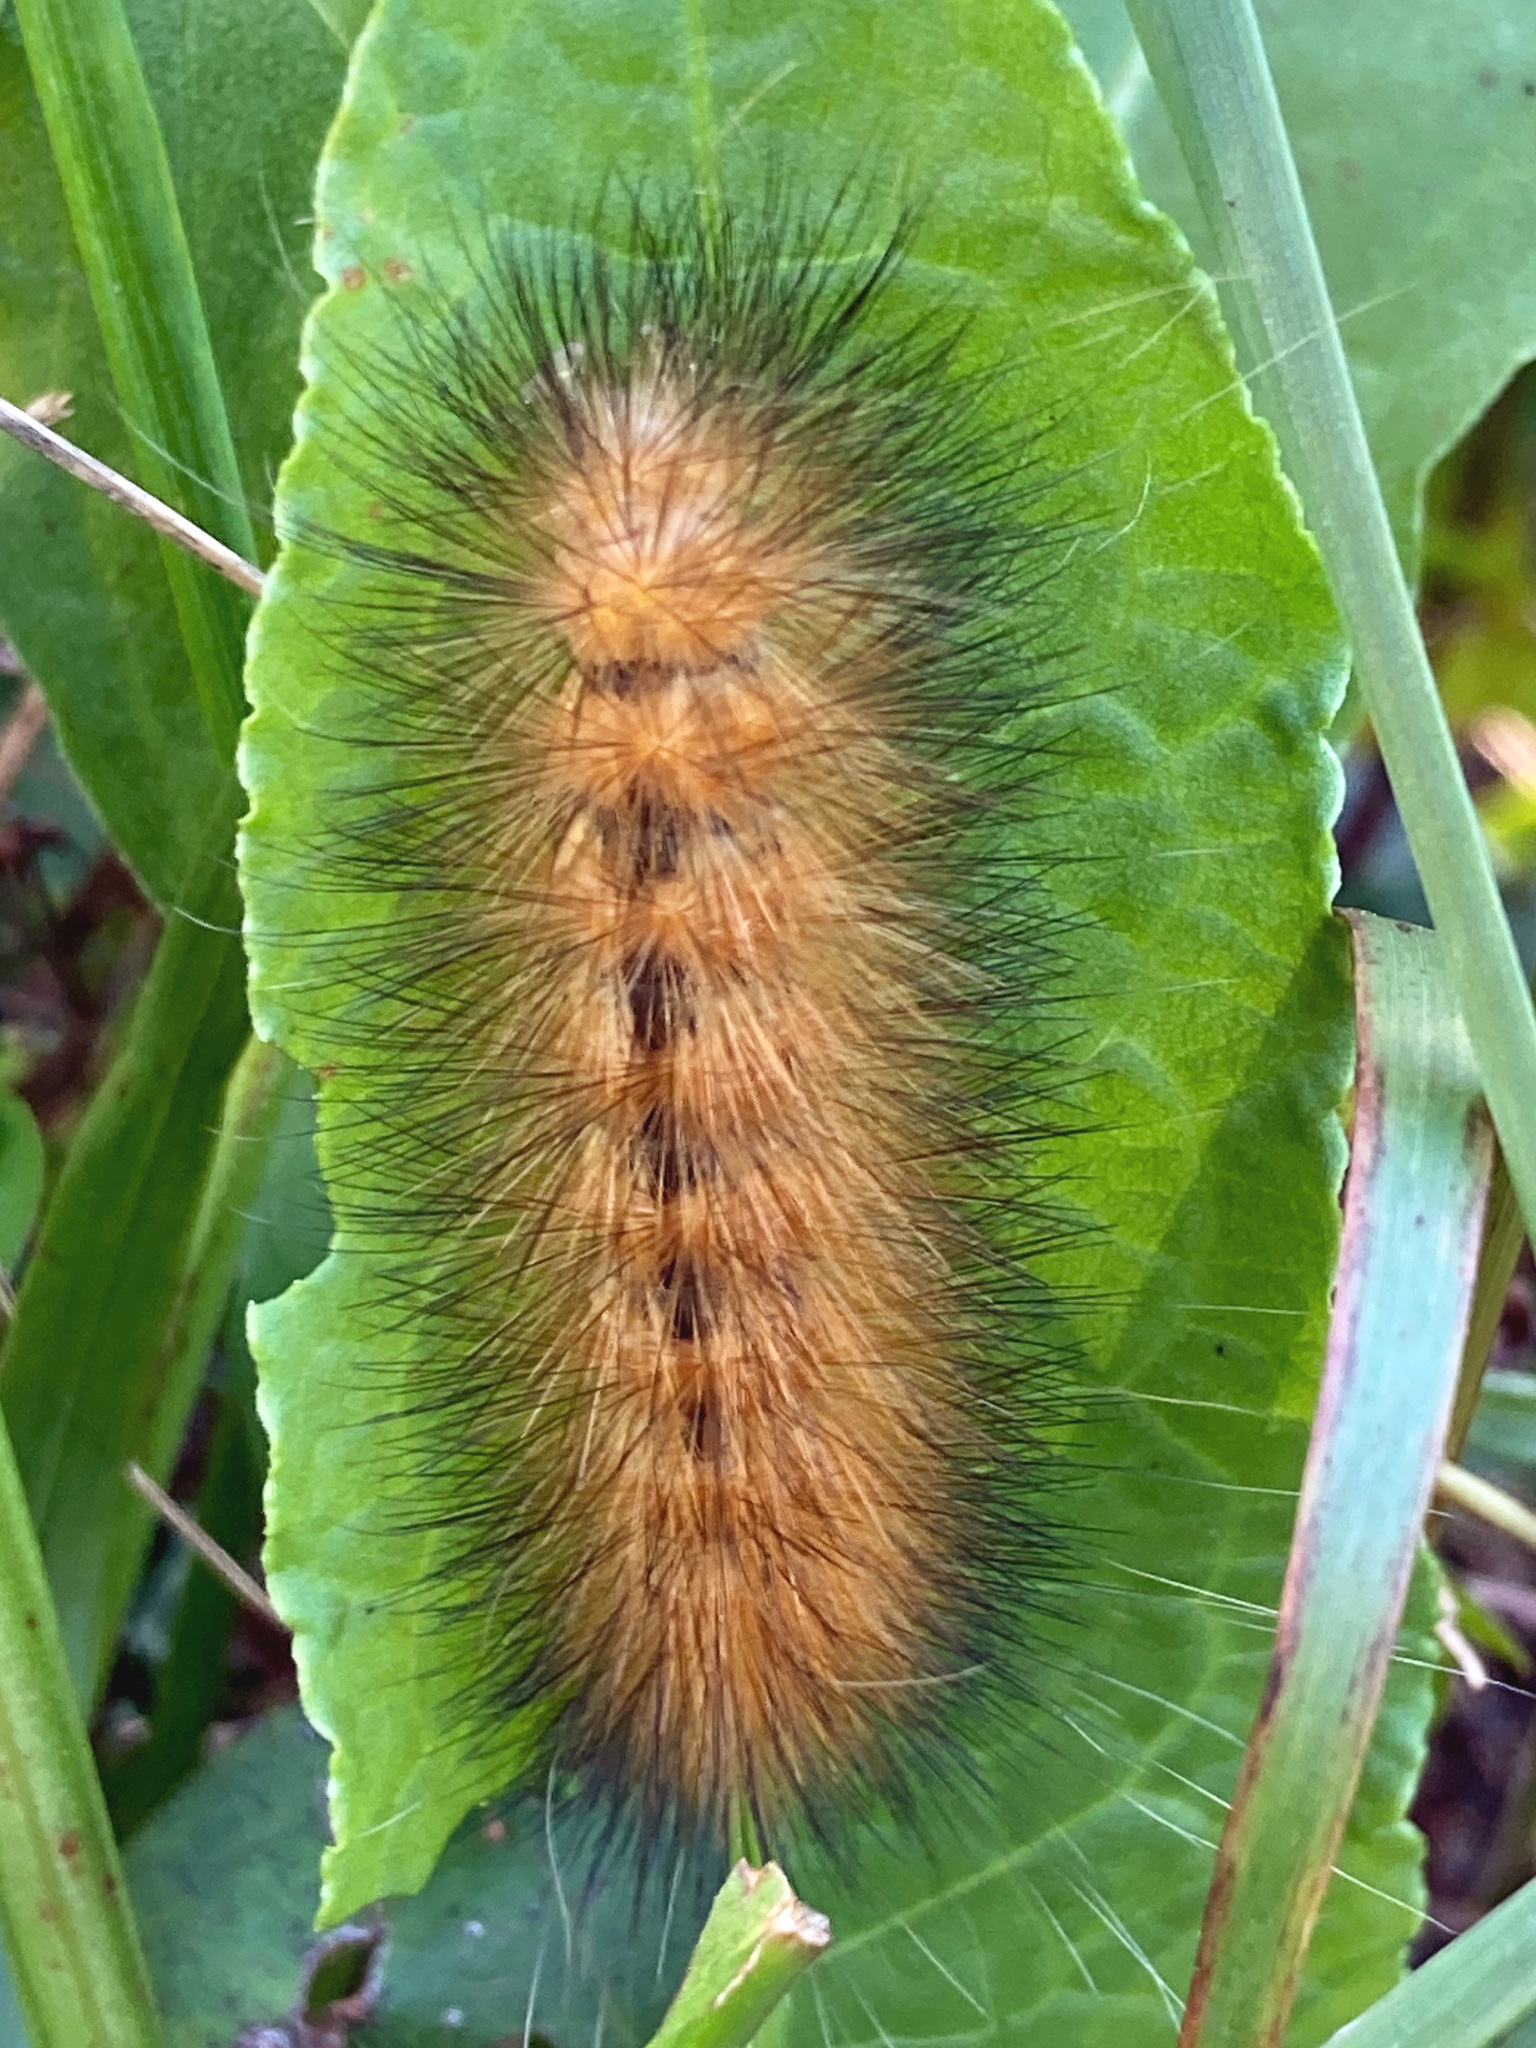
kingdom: Animalia
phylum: Arthropoda
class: Insecta
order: Lepidoptera
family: Erebidae
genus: Spilosoma
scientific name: Spilosoma virginica
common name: Virginia tiger moth
